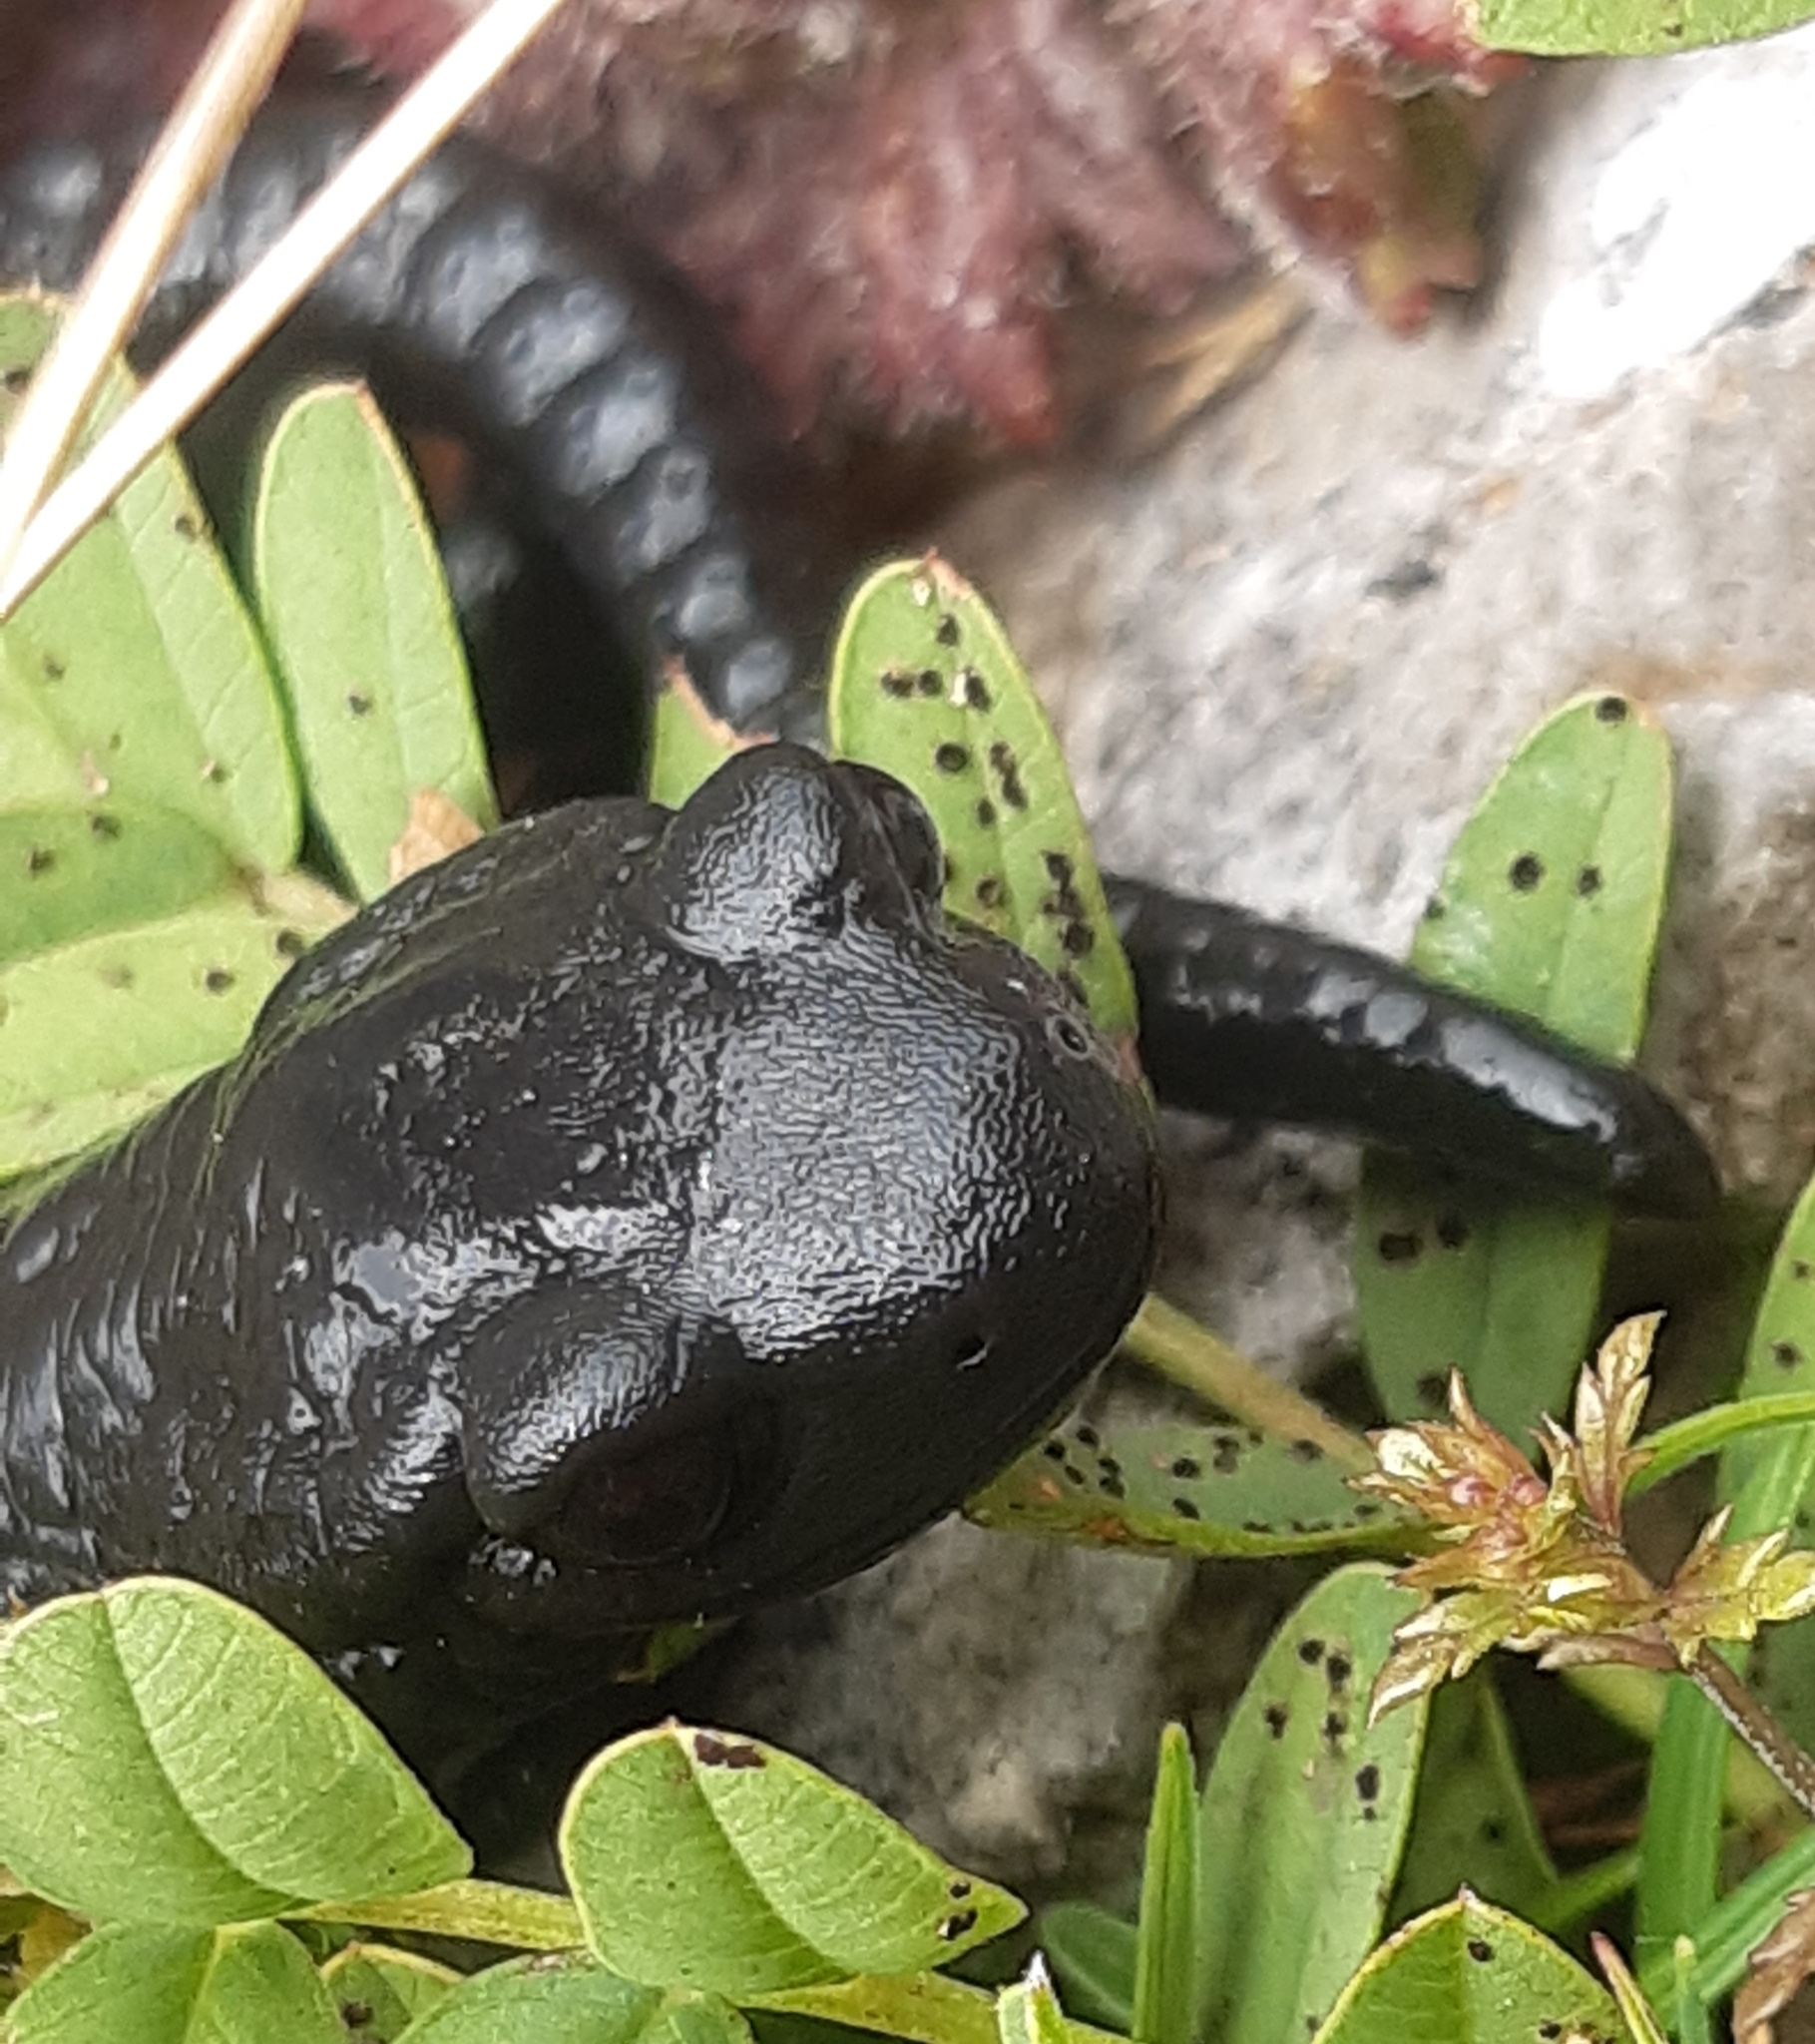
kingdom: Animalia
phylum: Chordata
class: Amphibia
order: Caudata
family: Salamandridae
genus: Salamandra
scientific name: Salamandra atra
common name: Alpine salamander
